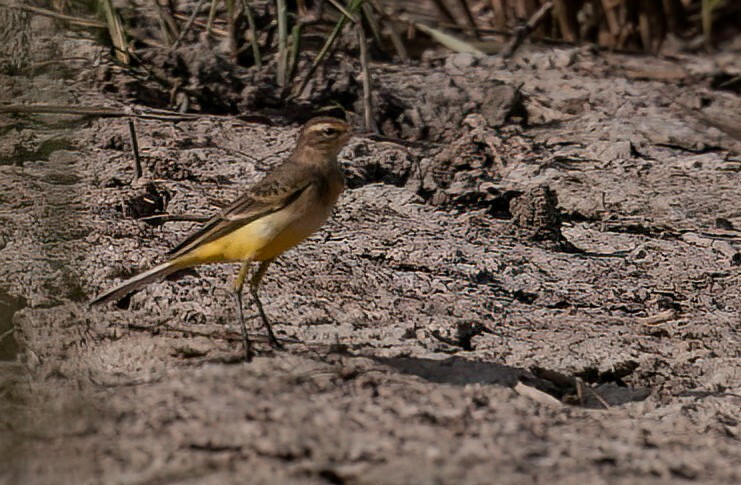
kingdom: Animalia
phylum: Chordata
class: Aves
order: Passeriformes
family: Motacillidae
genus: Motacilla
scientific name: Motacilla flava
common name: Western yellow wagtail
